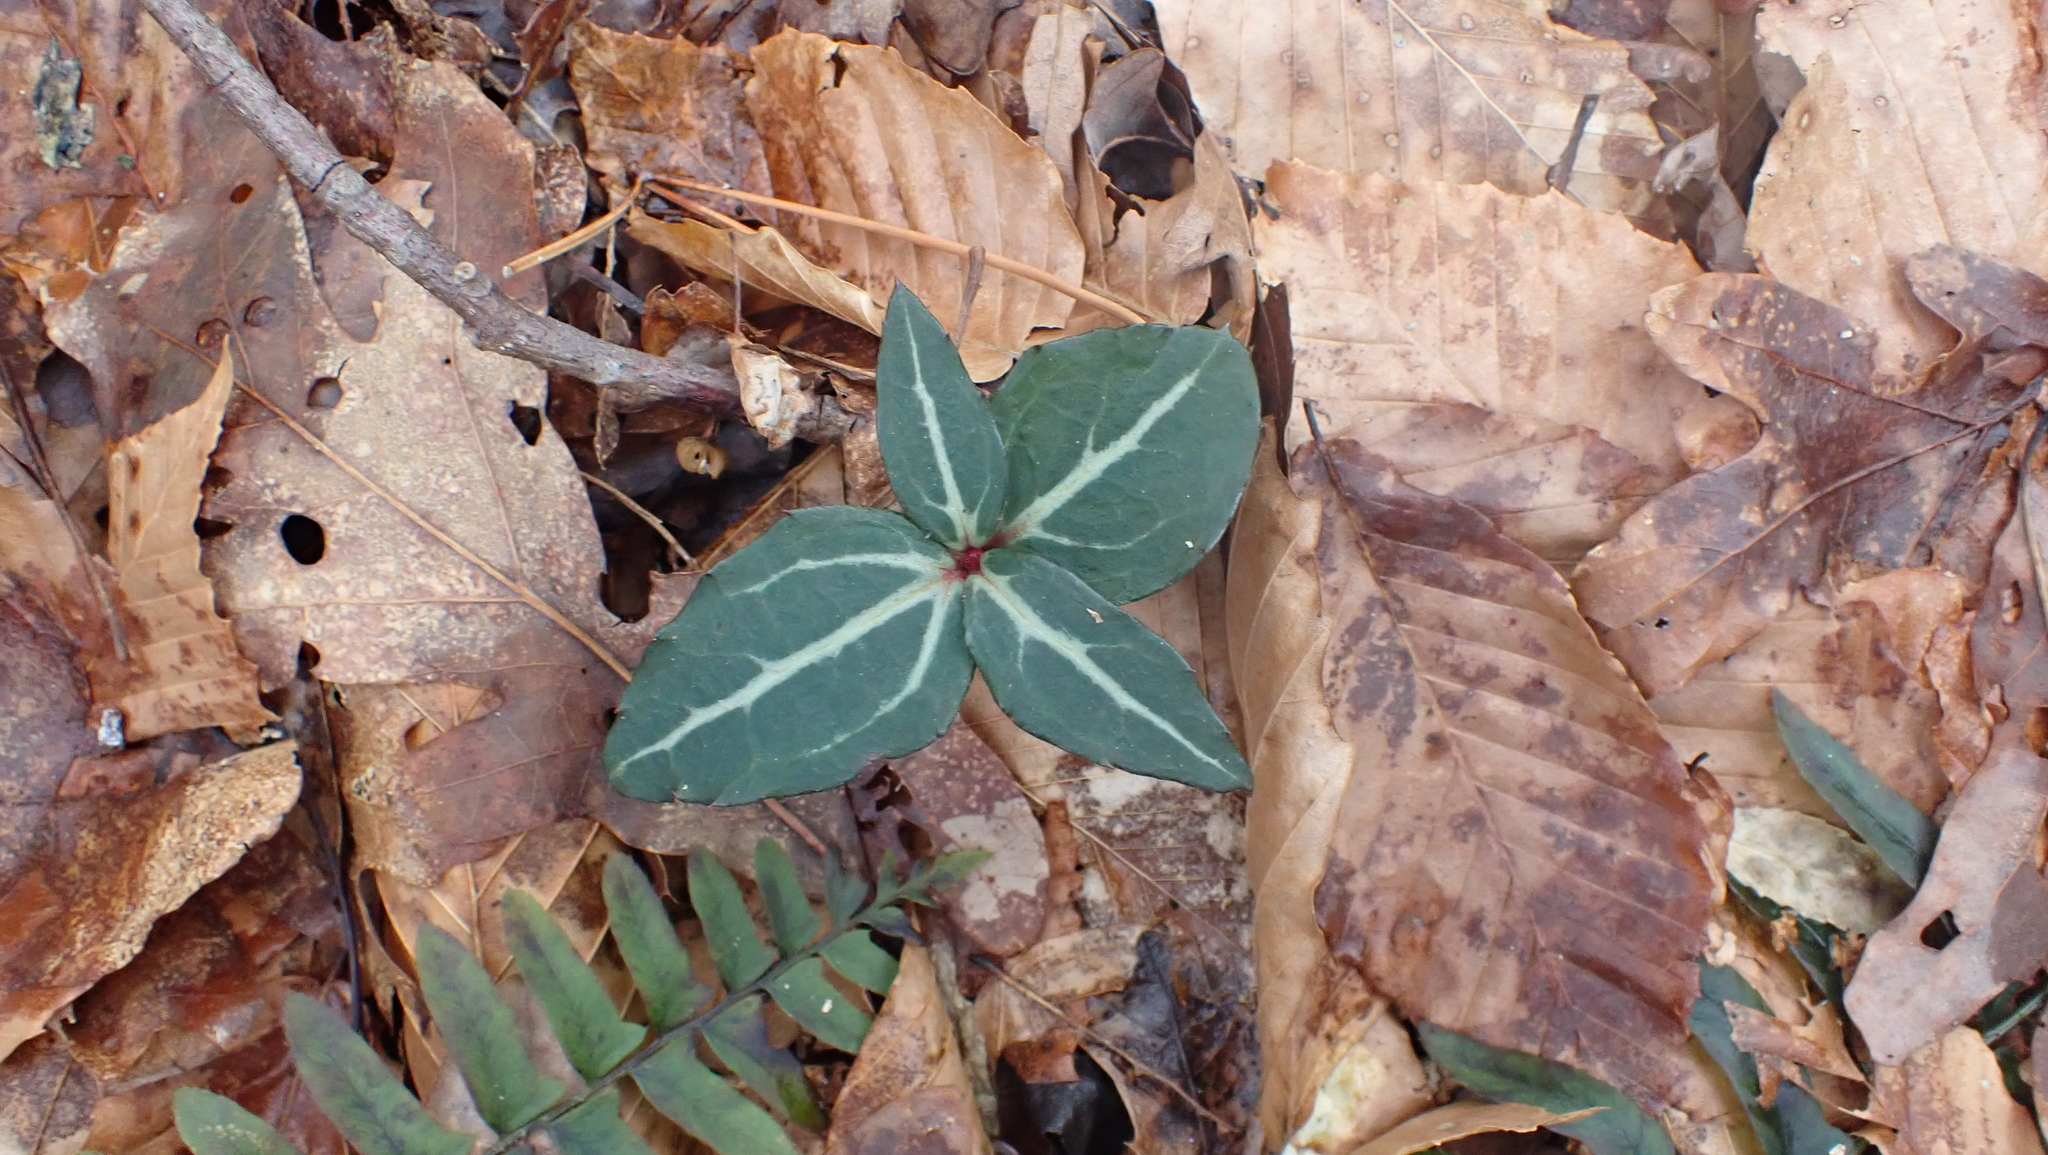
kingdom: Plantae
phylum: Tracheophyta
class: Magnoliopsida
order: Ericales
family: Ericaceae
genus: Chimaphila
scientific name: Chimaphila maculata
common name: Spotted pipsissewa
